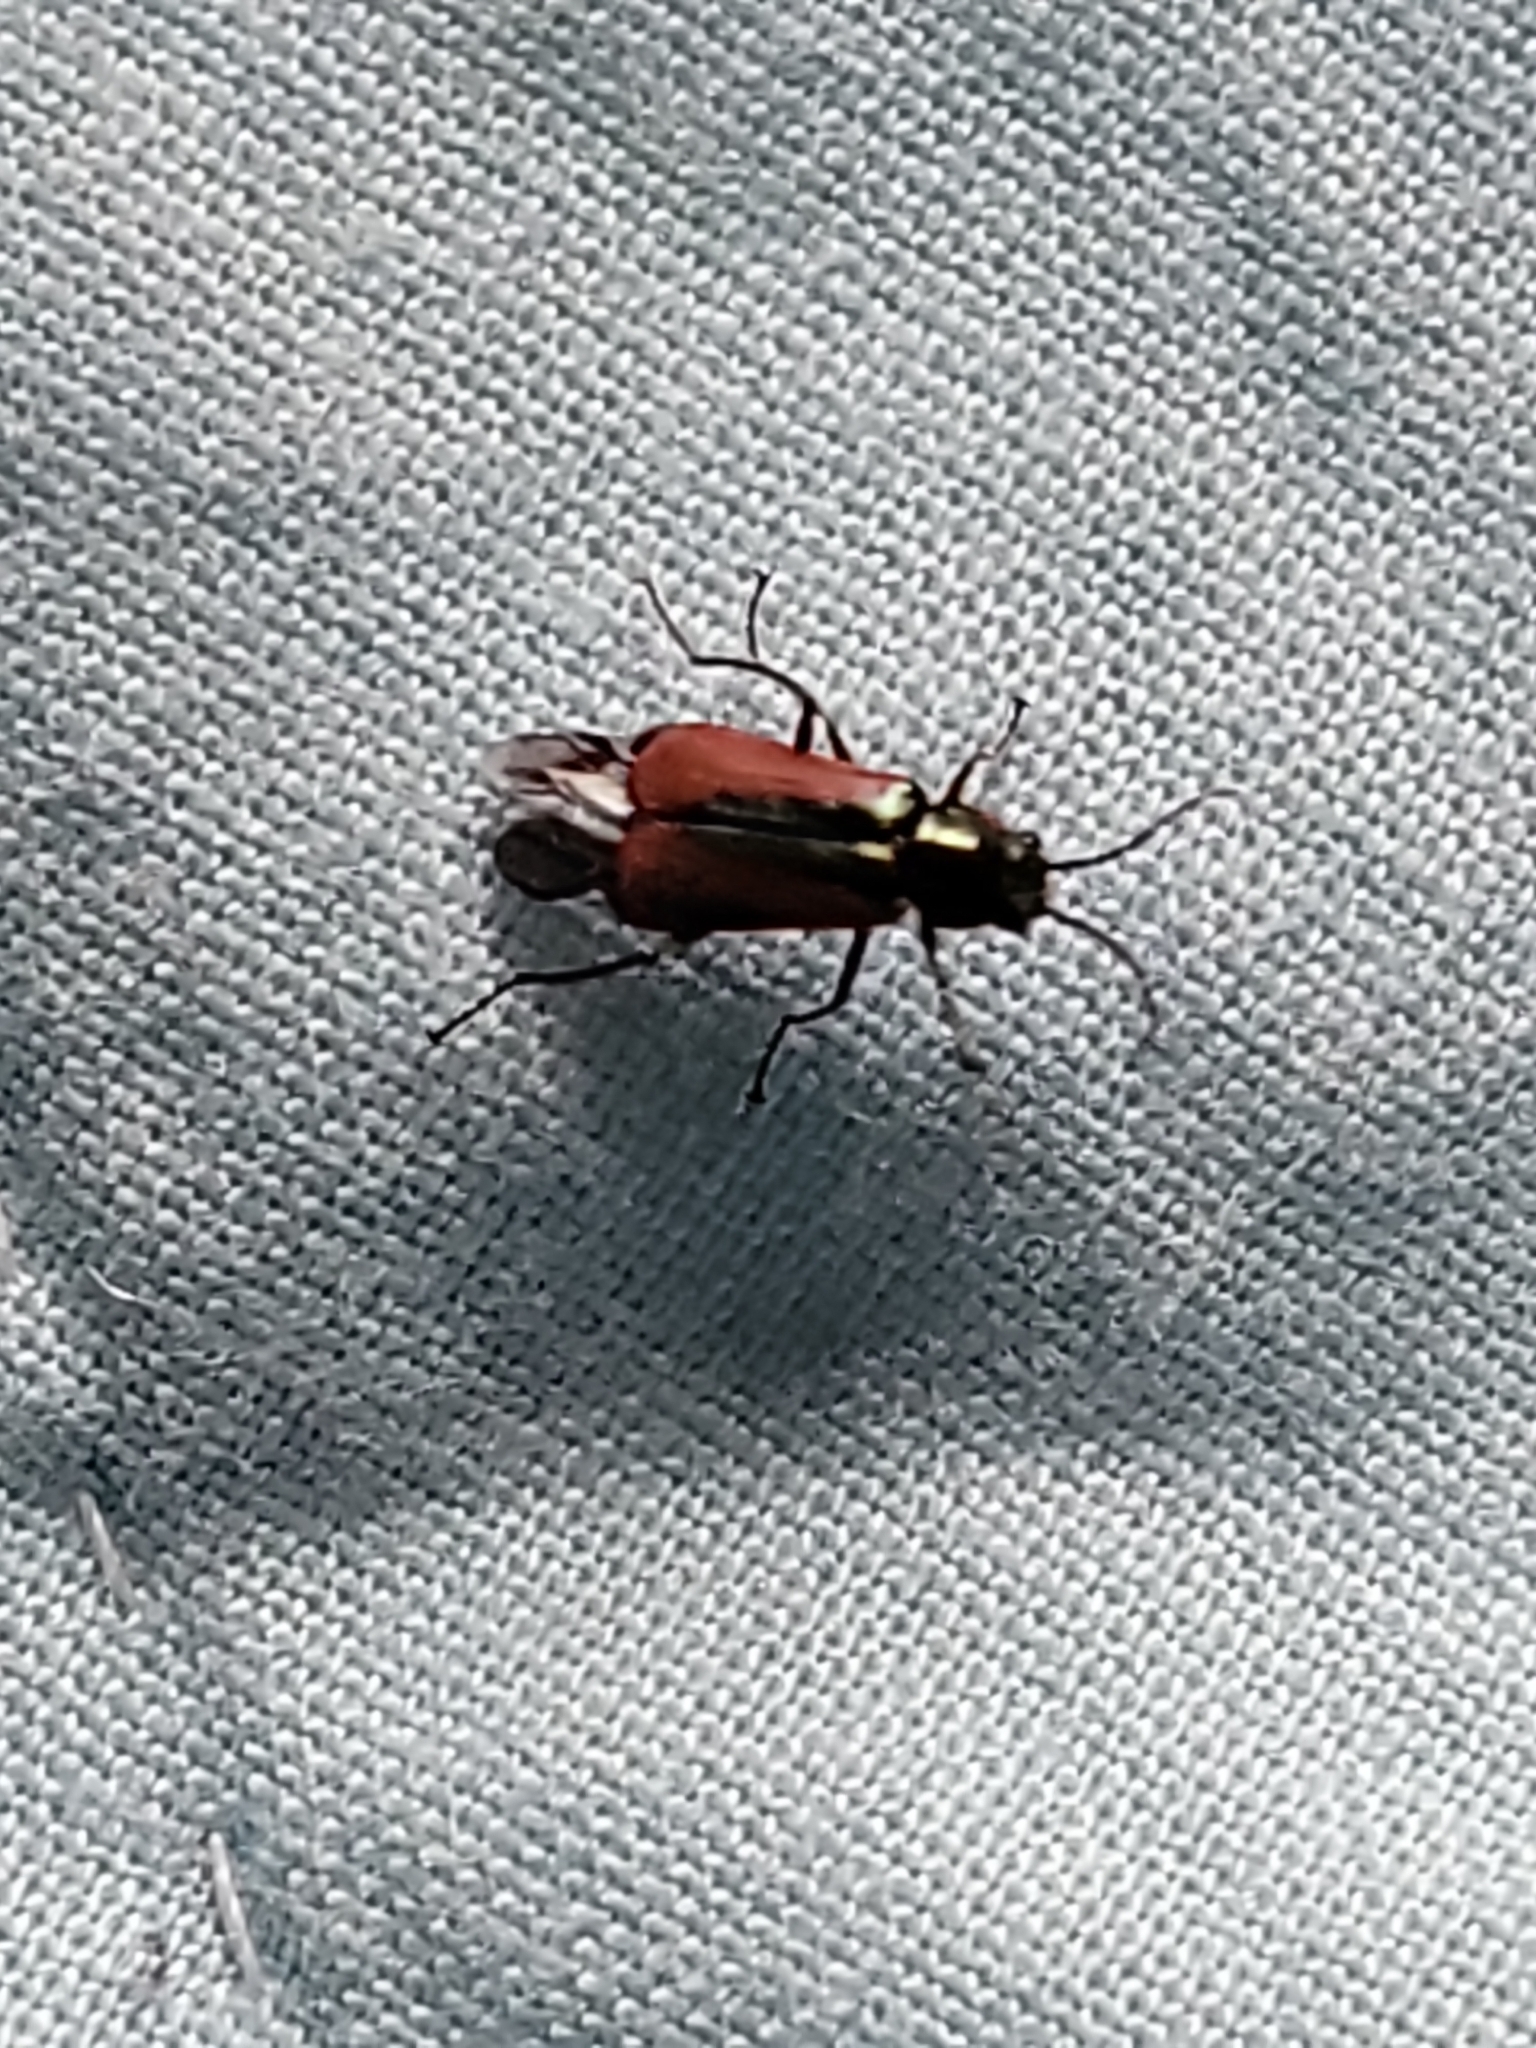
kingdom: Animalia
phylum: Arthropoda
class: Insecta
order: Coleoptera
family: Melyridae
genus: Malachius
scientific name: Malachius aeneus
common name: Scarlet malachite beetle
